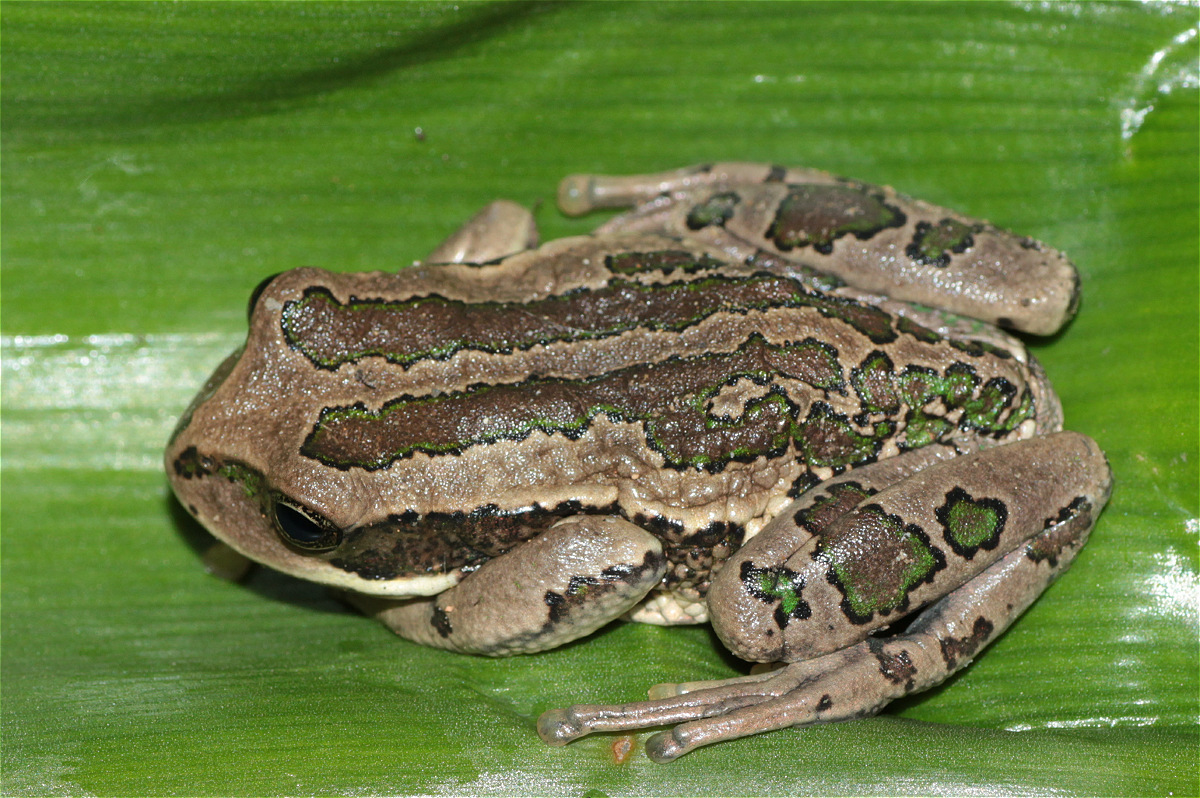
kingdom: Animalia
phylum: Chordata
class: Amphibia
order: Anura
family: Hemiphractidae
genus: Gastrotheca
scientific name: Gastrotheca cuencana
